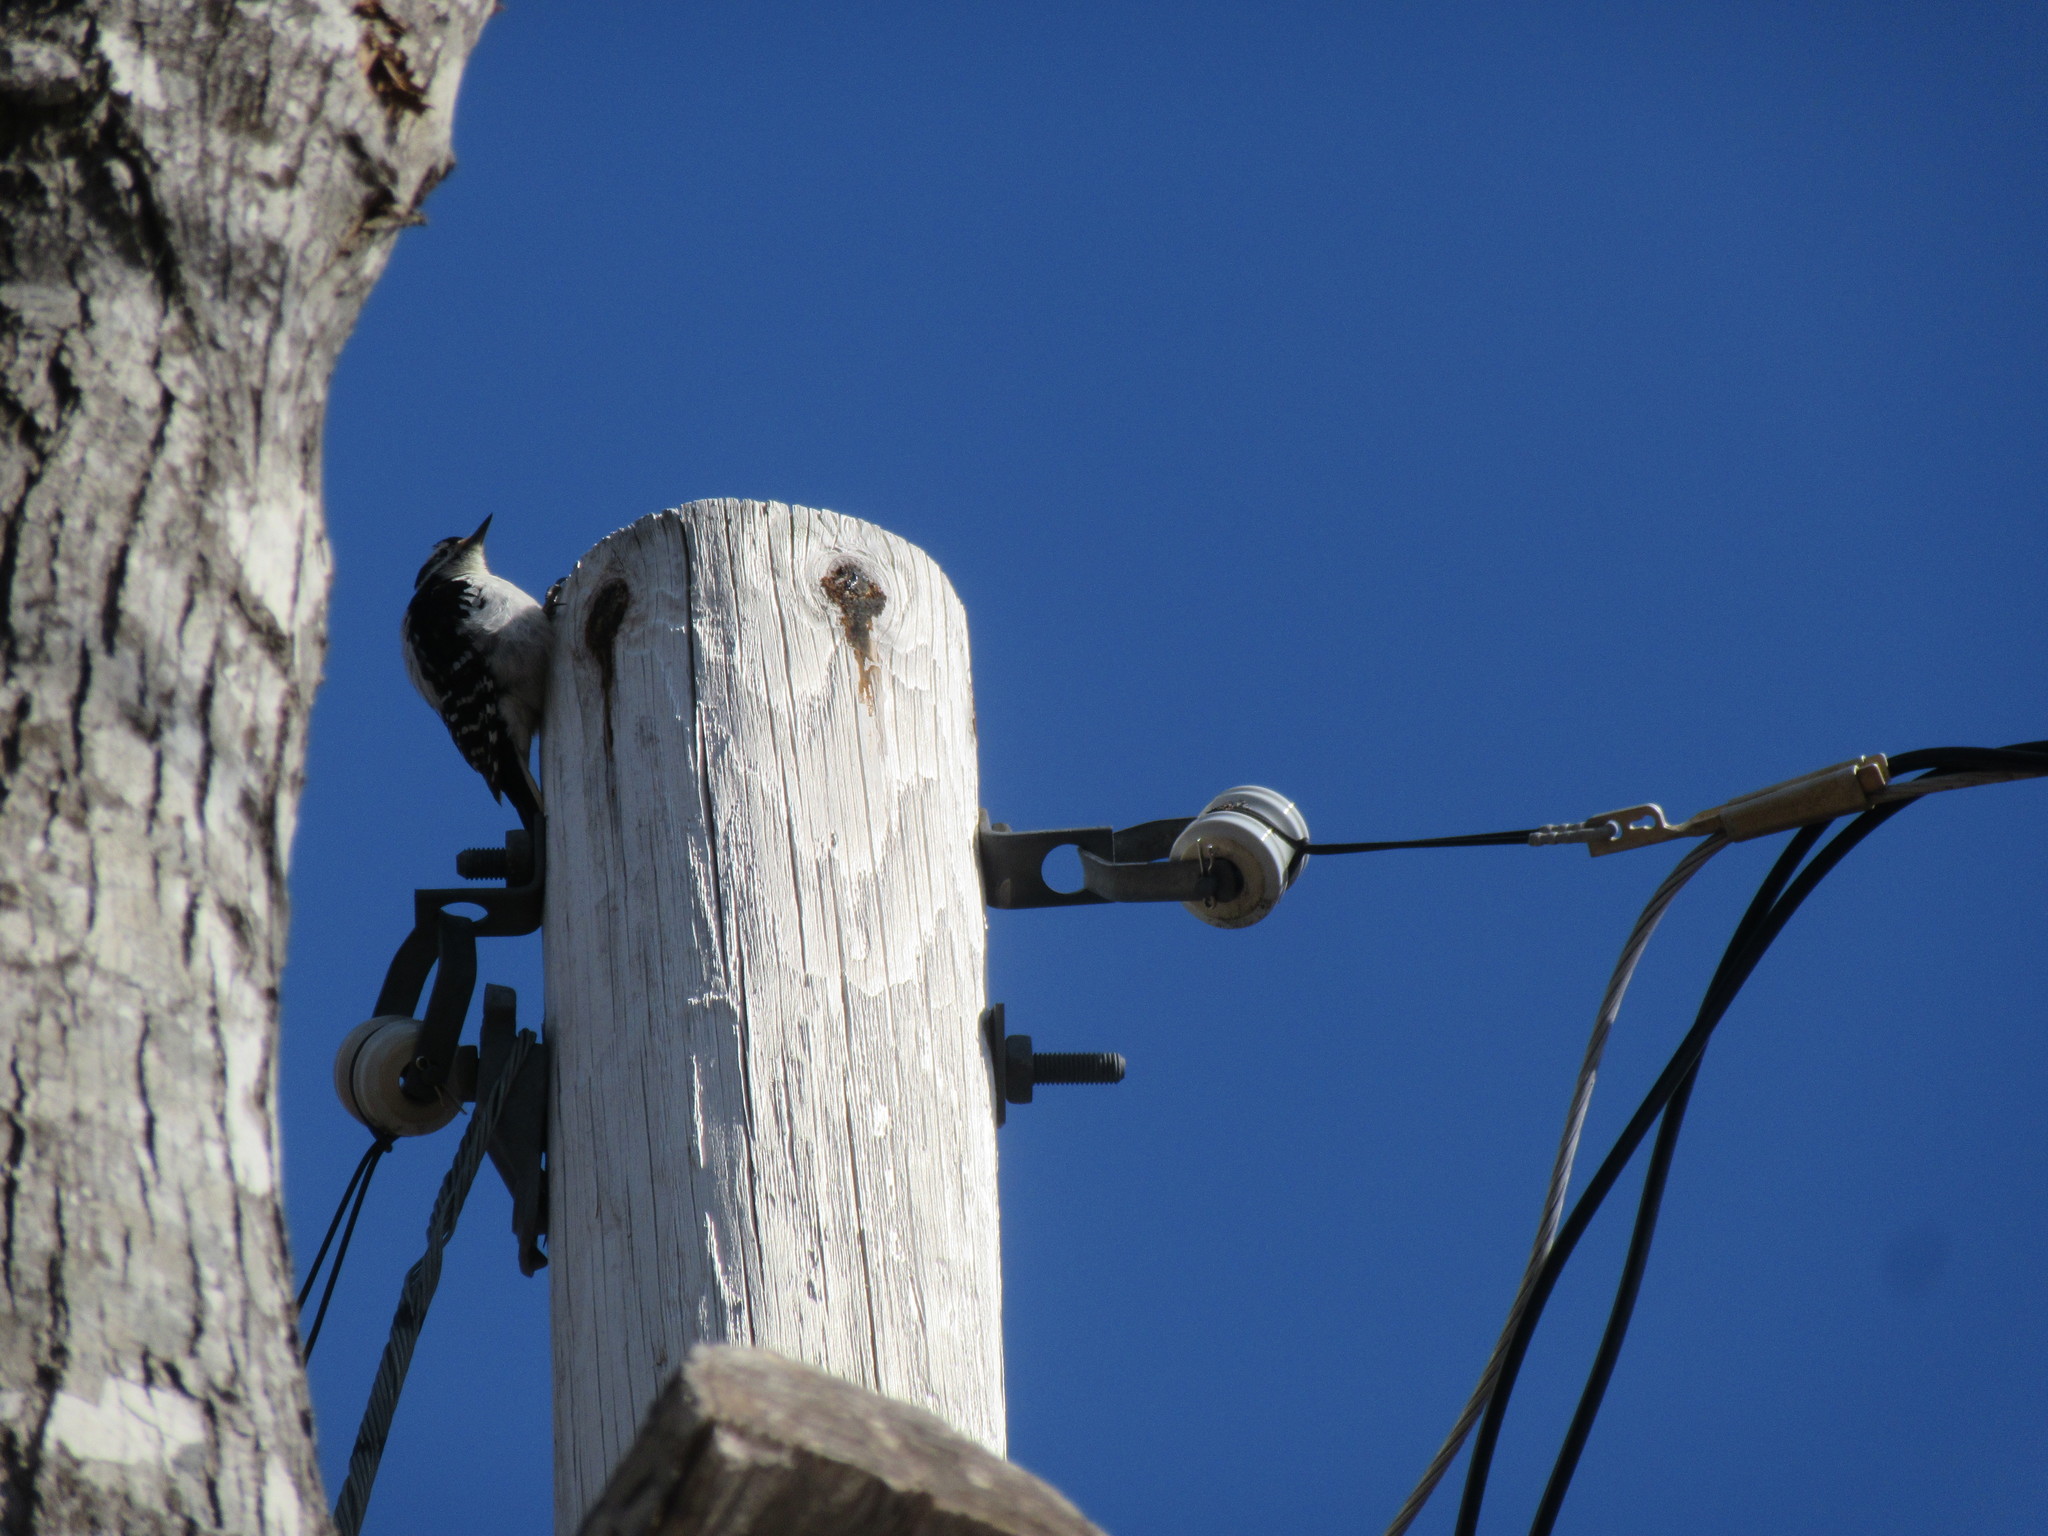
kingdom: Animalia
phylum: Chordata
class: Aves
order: Piciformes
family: Picidae
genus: Leuconotopicus
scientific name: Leuconotopicus villosus
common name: Hairy woodpecker
